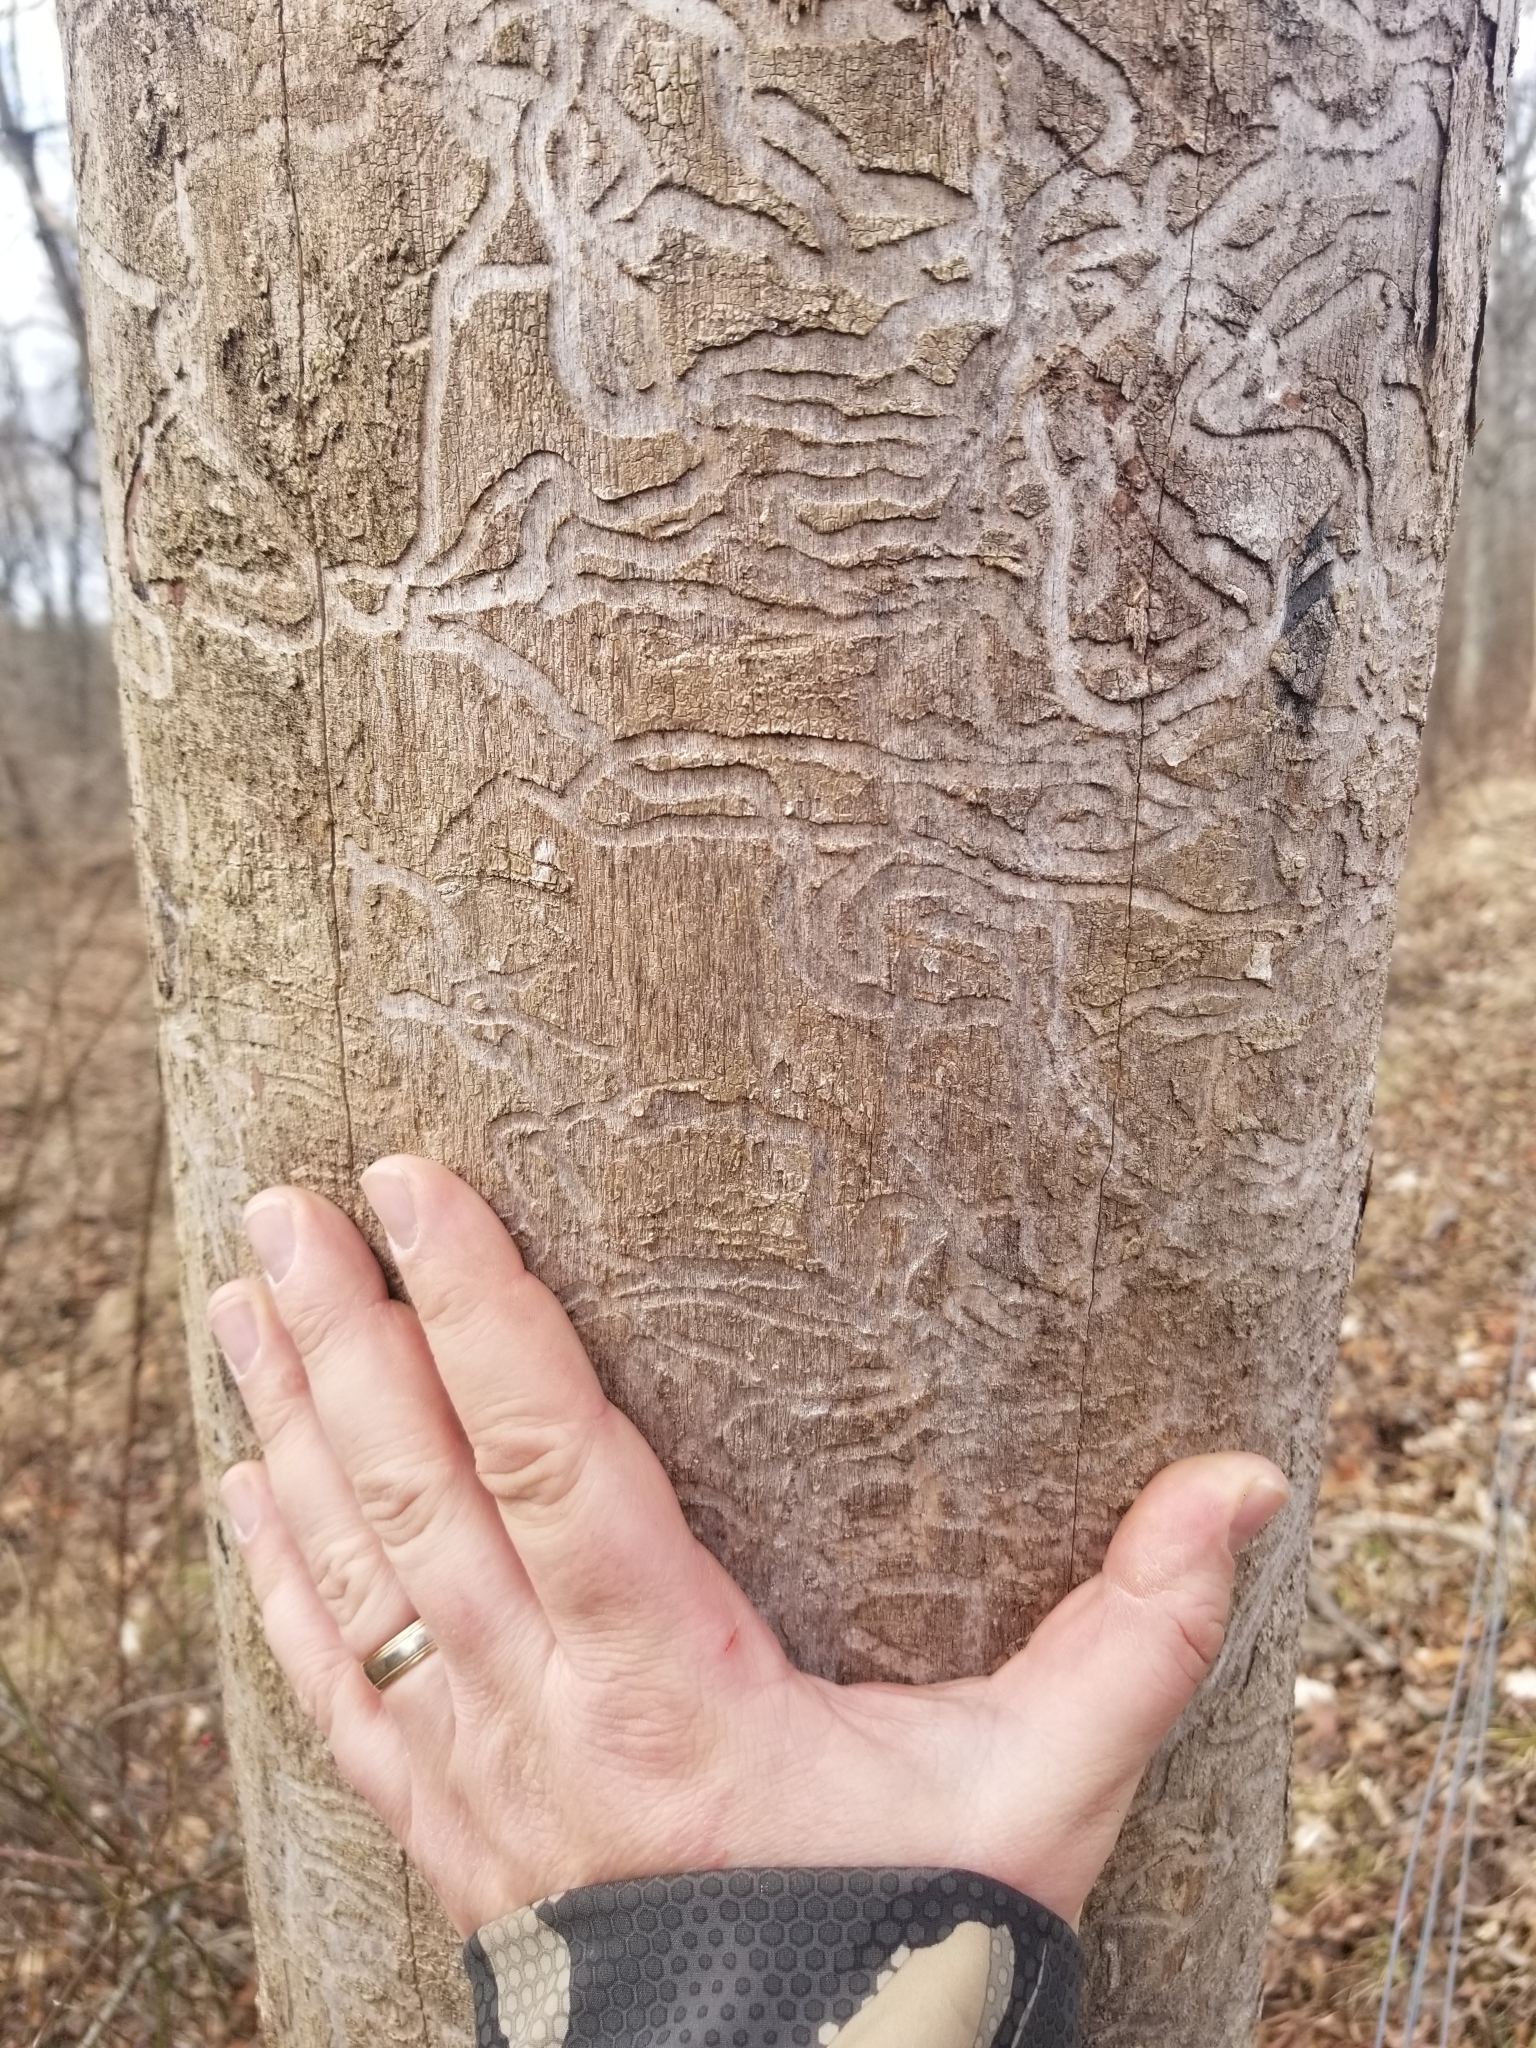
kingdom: Animalia
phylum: Arthropoda
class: Insecta
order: Coleoptera
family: Buprestidae
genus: Agrilus
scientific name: Agrilus planipennis
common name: Emerald ash borer
